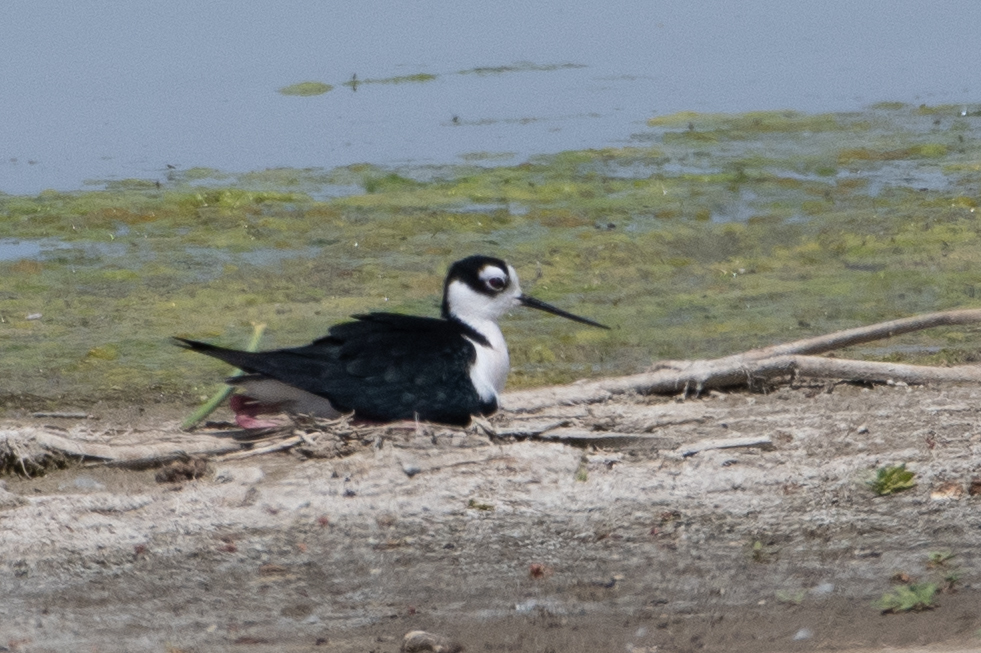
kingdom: Animalia
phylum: Chordata
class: Aves
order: Charadriiformes
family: Recurvirostridae
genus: Himantopus
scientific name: Himantopus mexicanus
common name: Black-necked stilt
